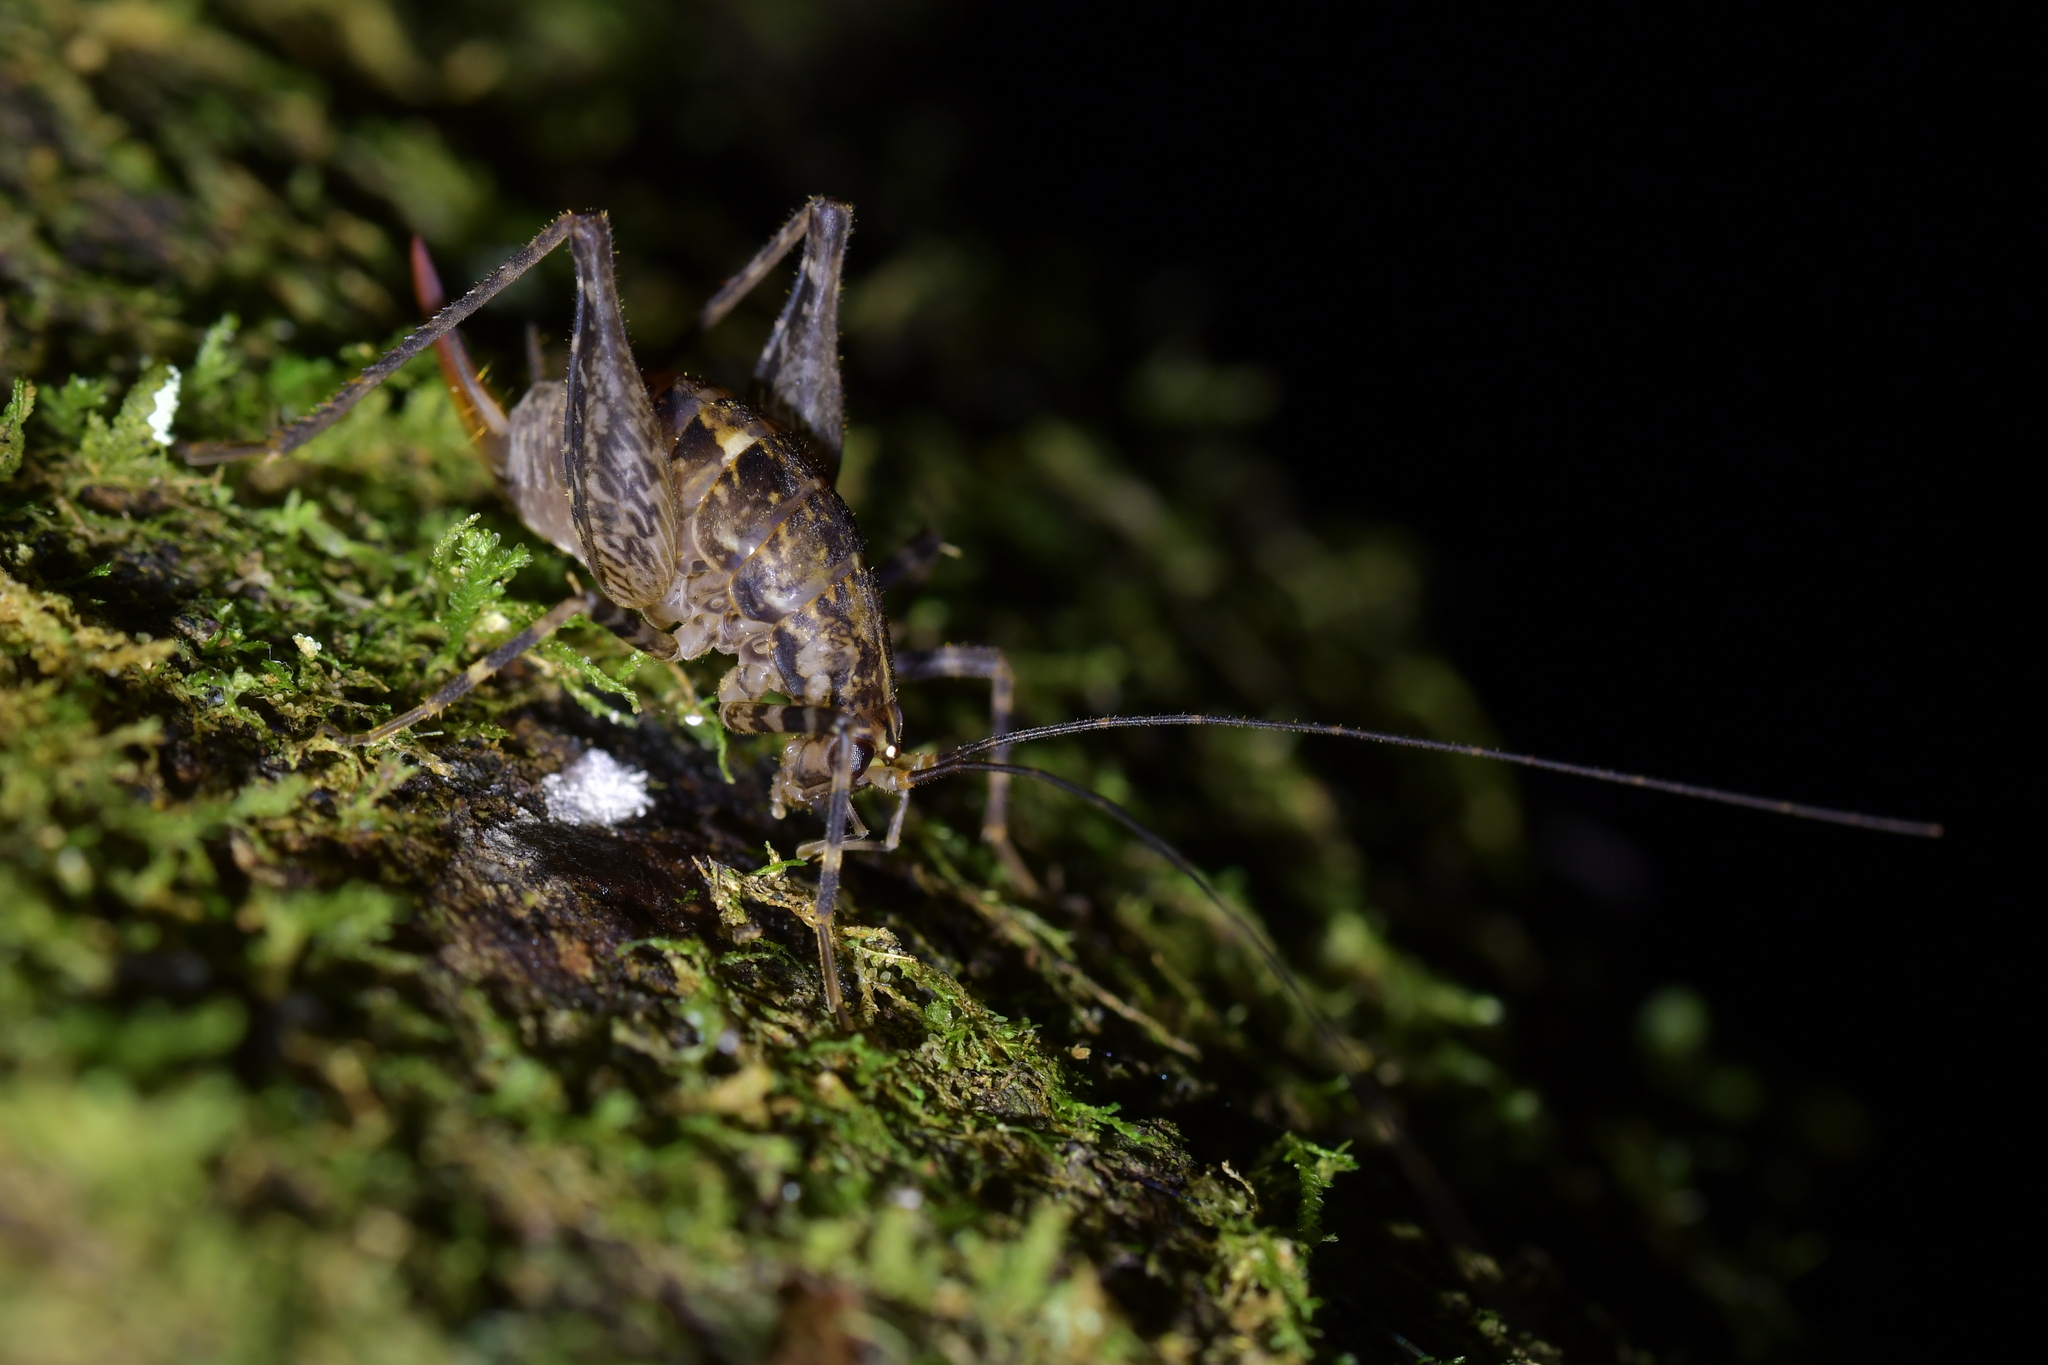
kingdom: Animalia
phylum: Arthropoda
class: Insecta
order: Orthoptera
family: Rhaphidophoridae
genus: Pleioplectron
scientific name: Pleioplectron hudsoni
